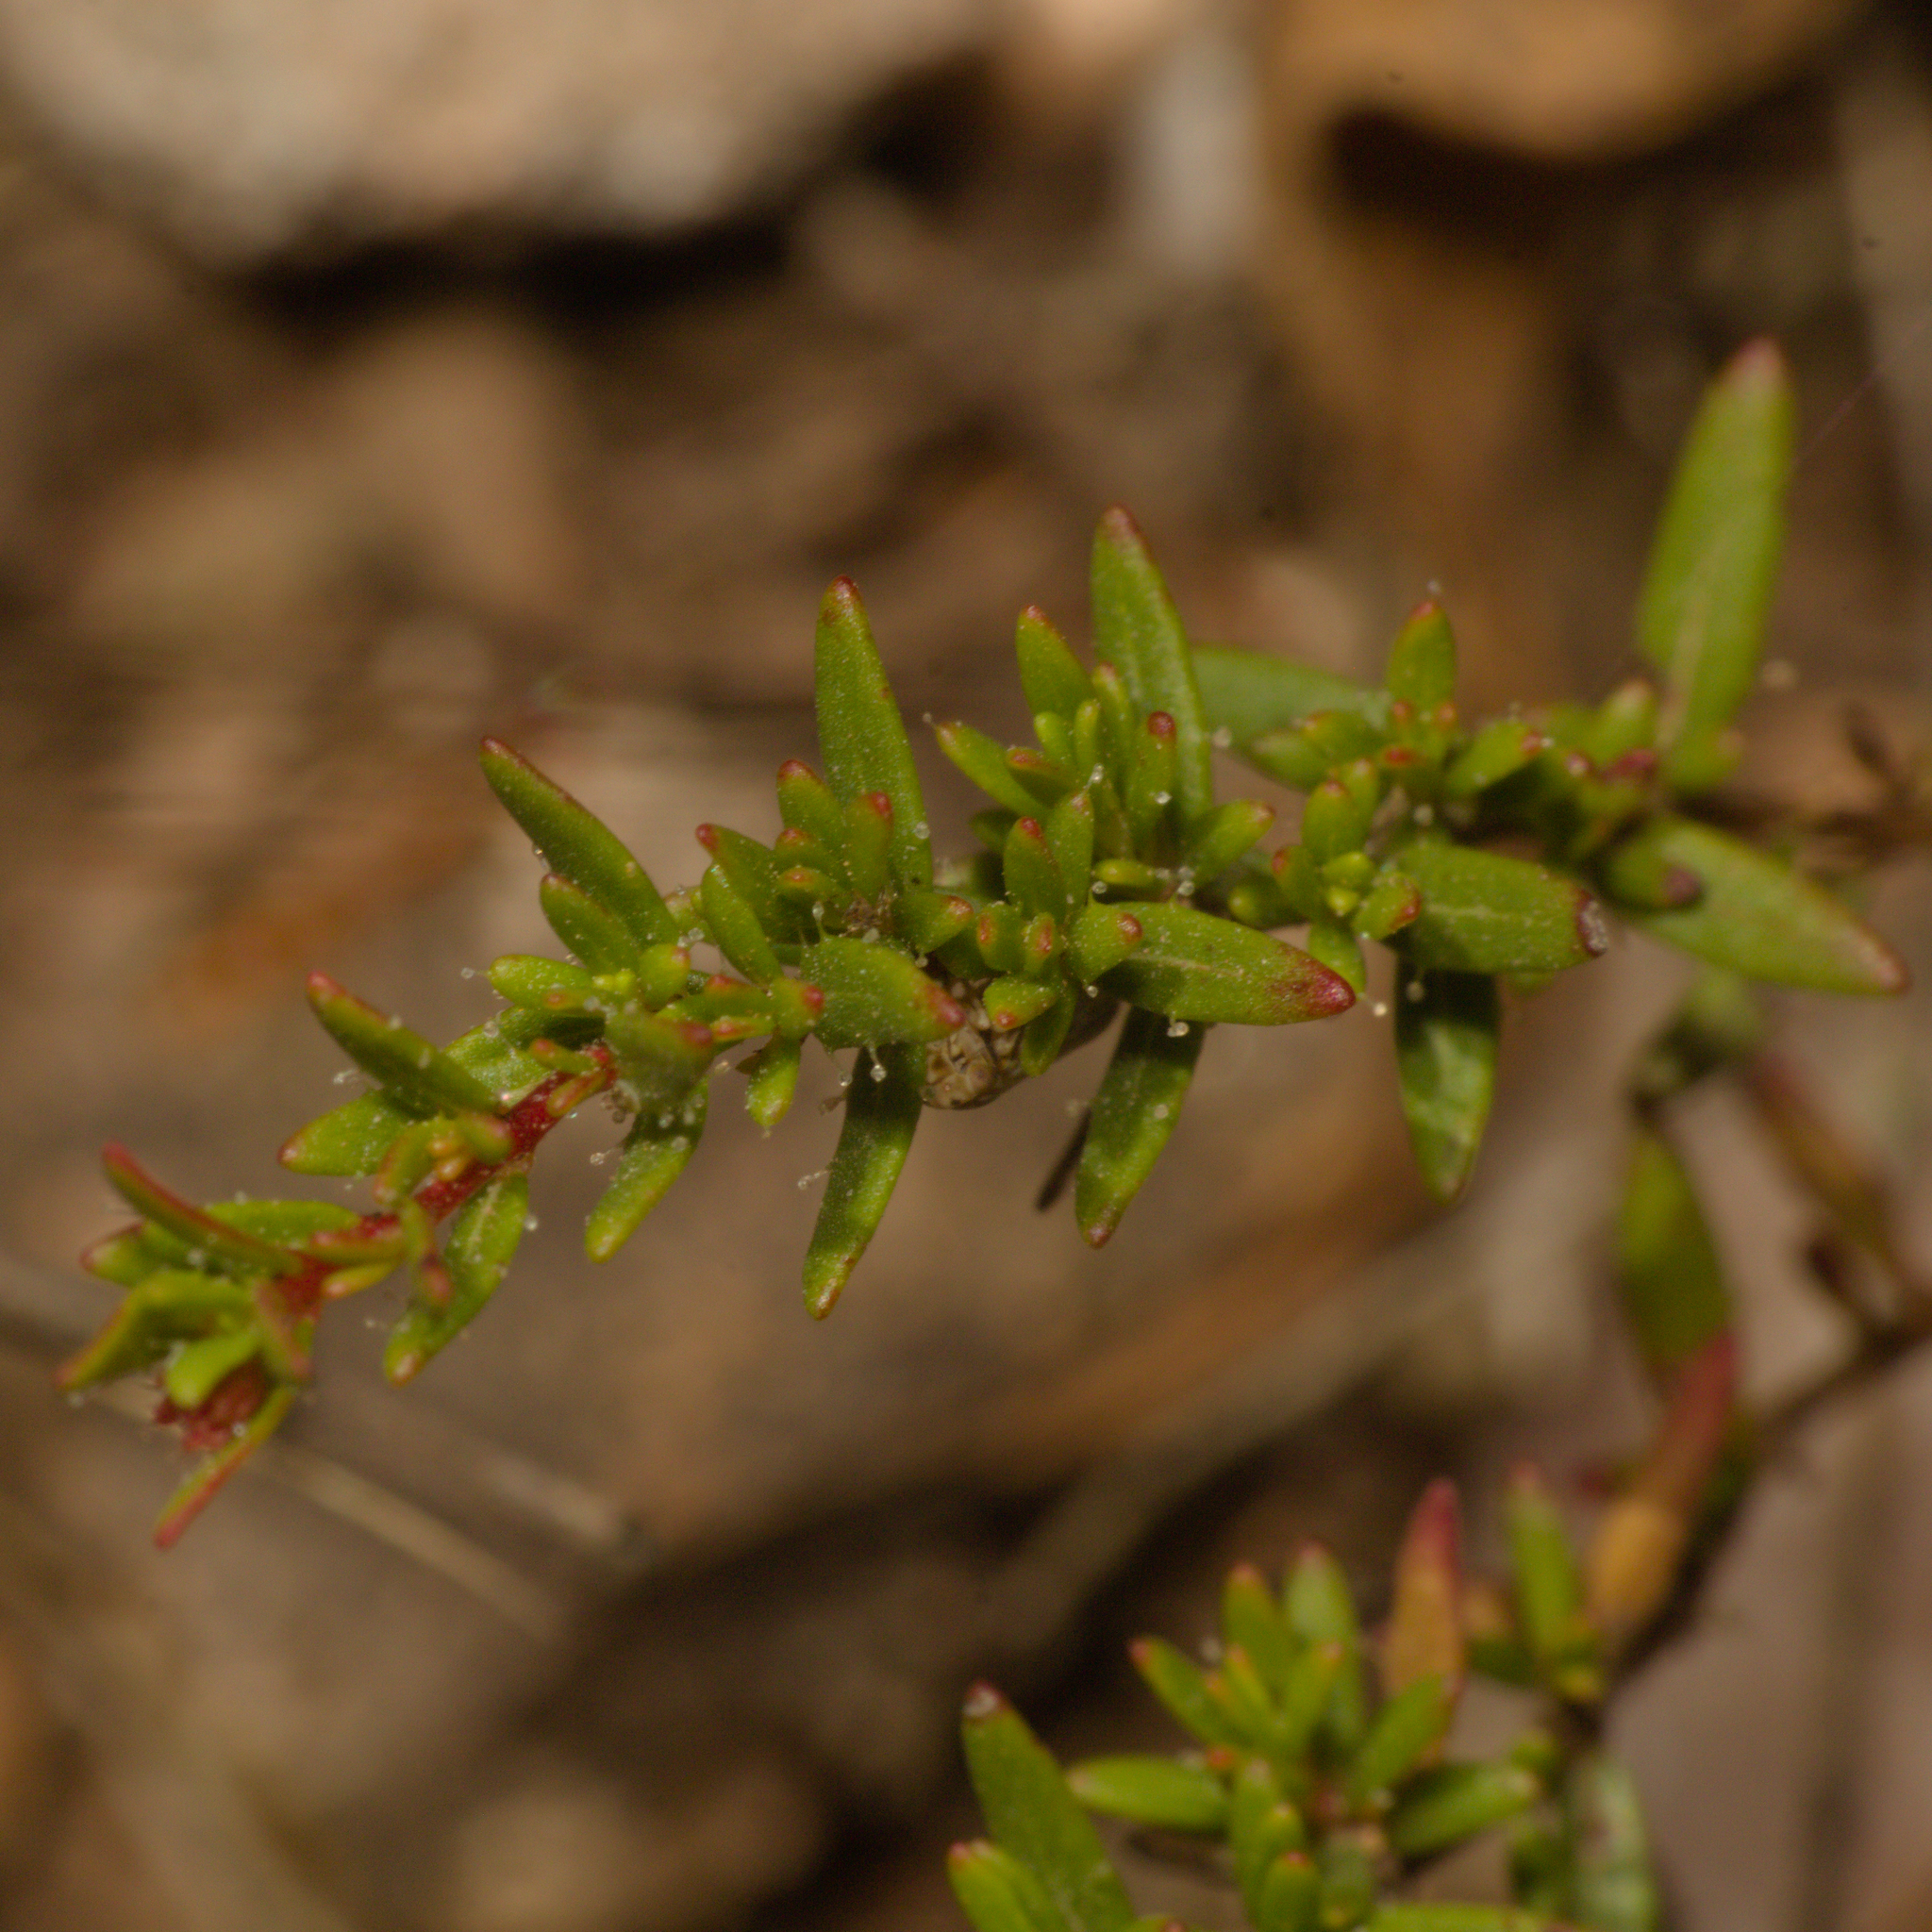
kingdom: Plantae
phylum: Tracheophyta
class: Magnoliopsida
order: Myrtales
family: Lythraceae
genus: Cuphea
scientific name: Cuphea linarioides
